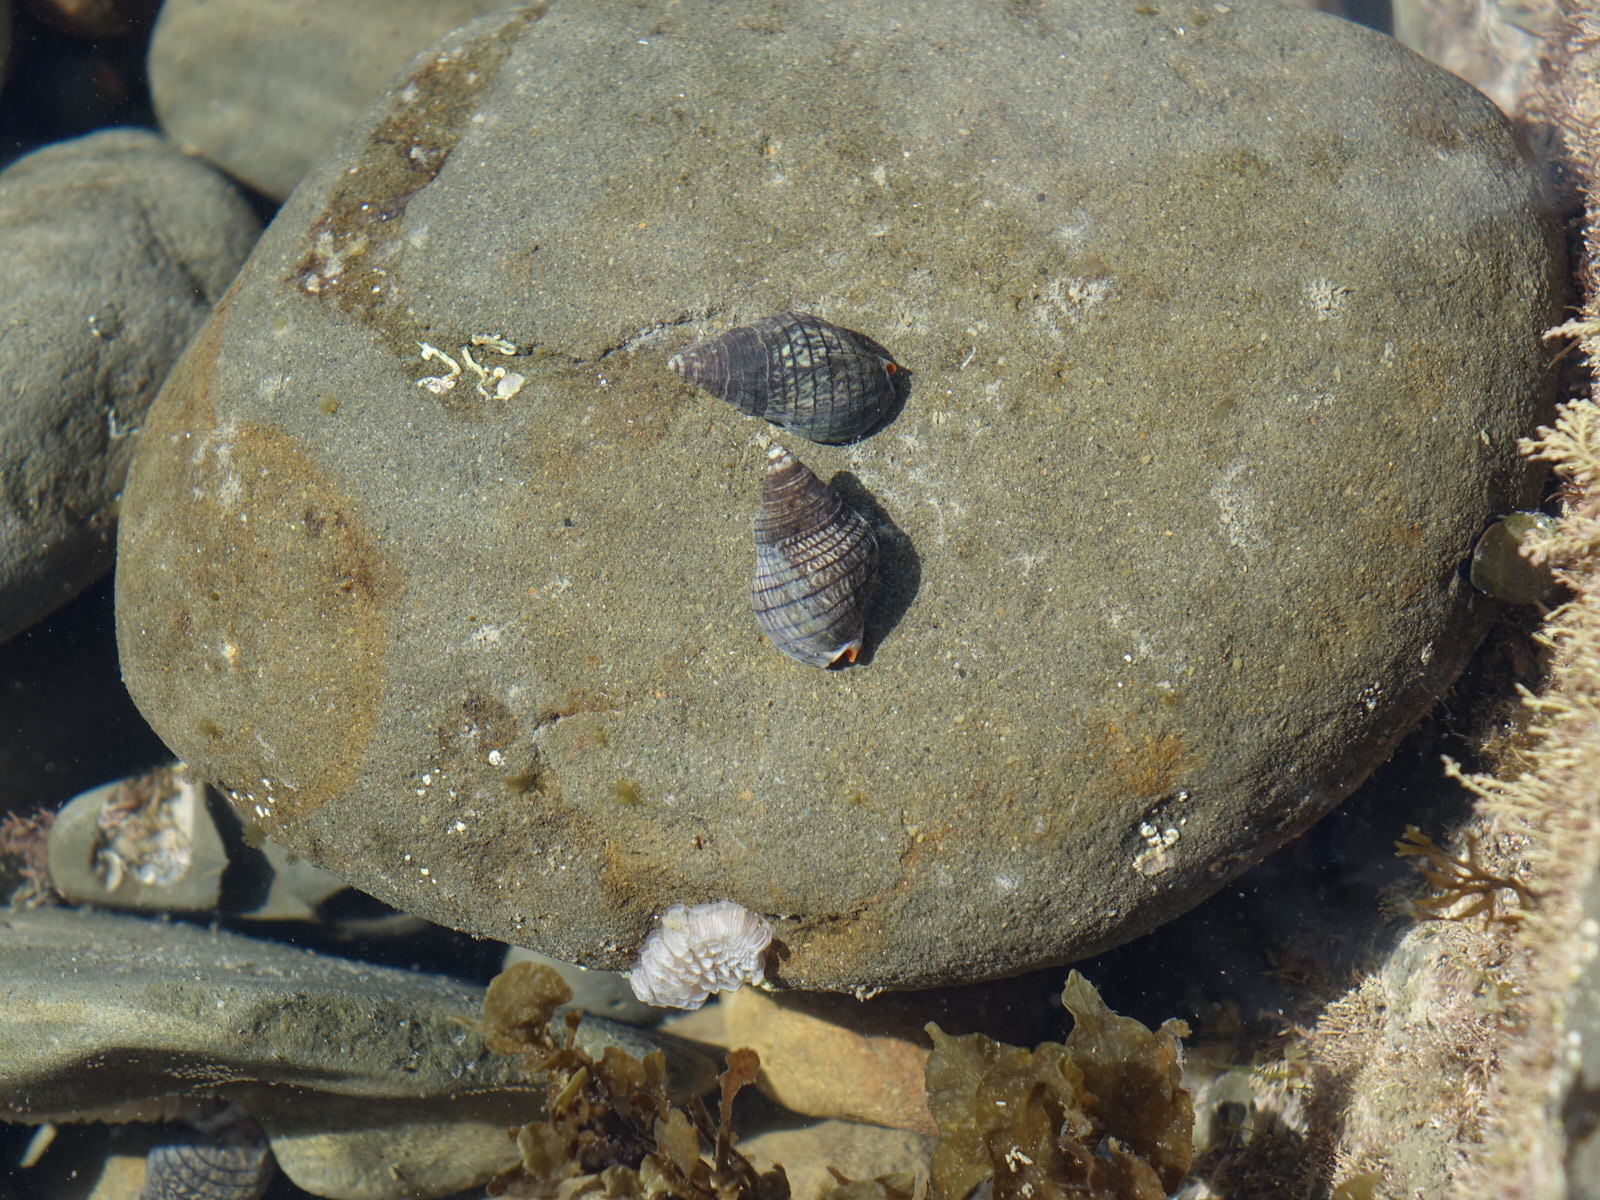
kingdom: Animalia
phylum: Mollusca
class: Gastropoda
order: Neogastropoda
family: Cominellidae
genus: Cominella
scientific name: Cominella virgata
